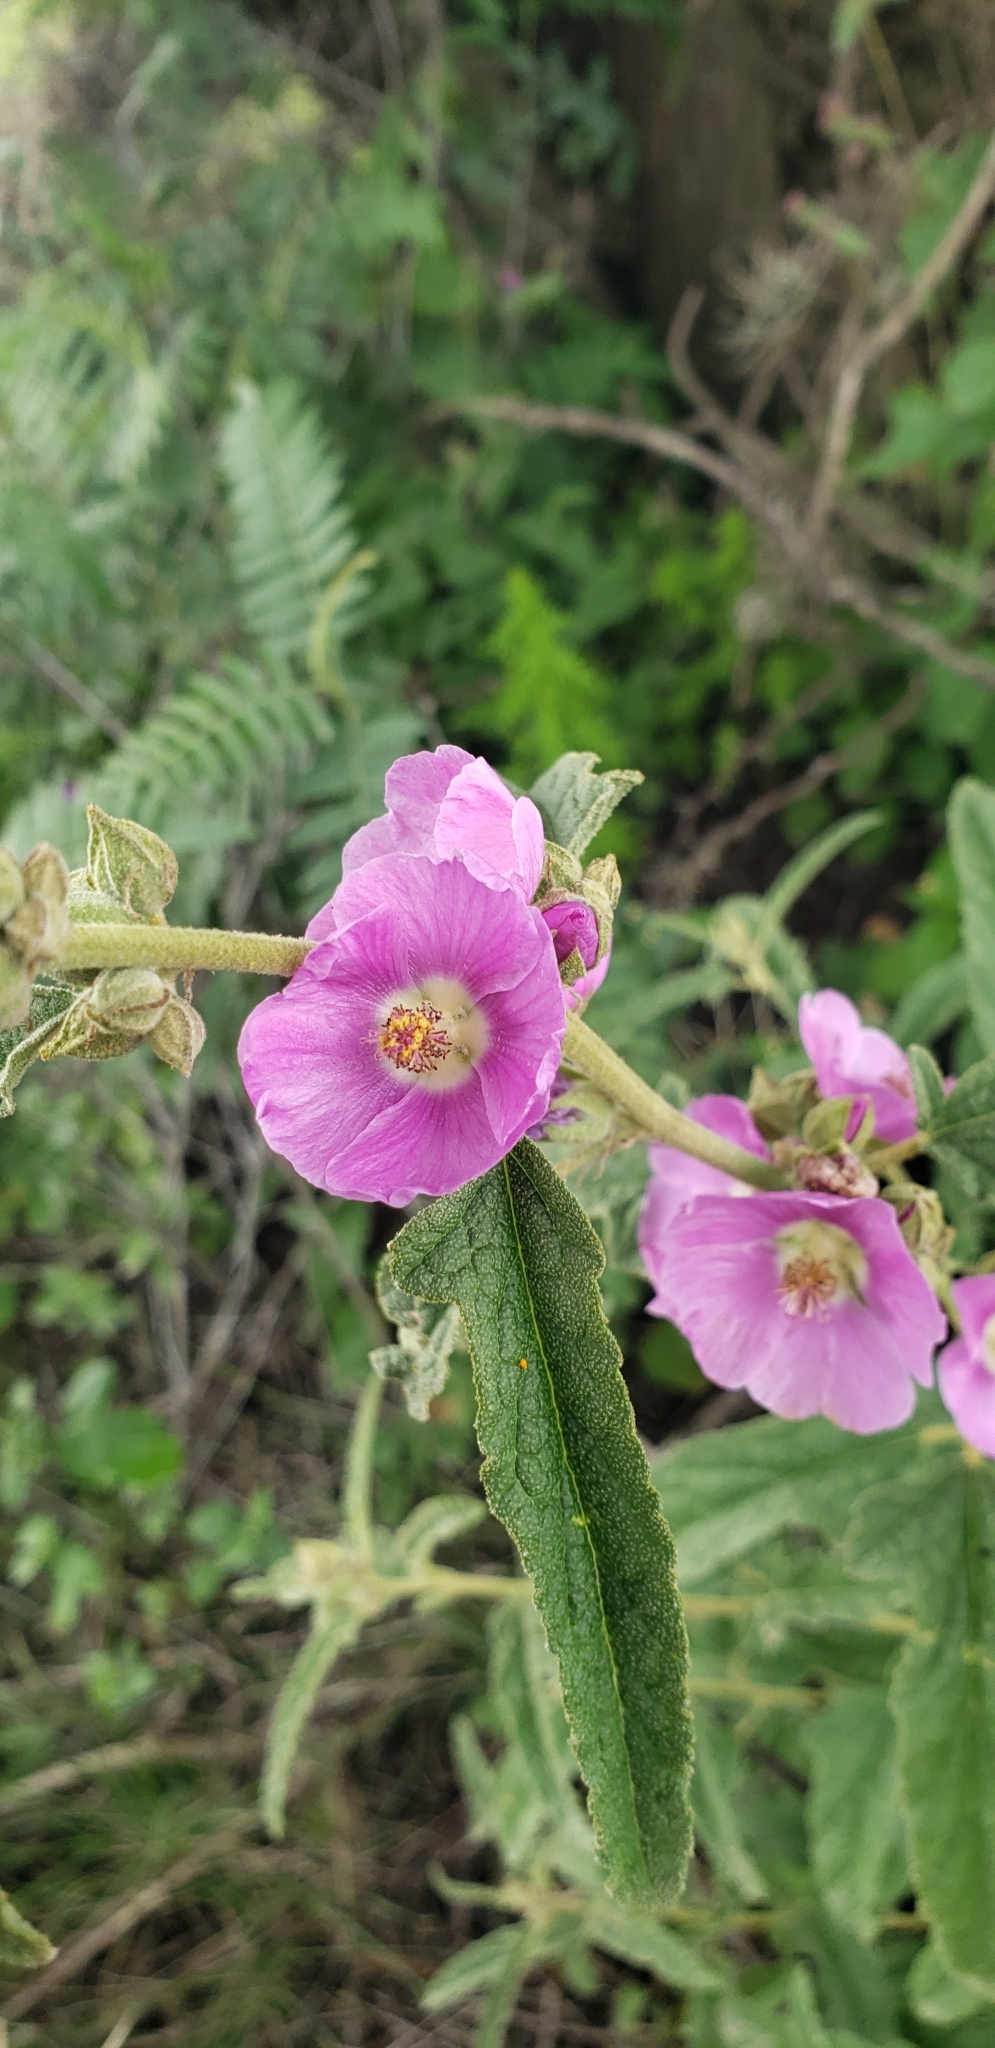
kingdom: Plantae
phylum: Tracheophyta
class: Magnoliopsida
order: Malvales
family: Malvaceae
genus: Sphaeralcea
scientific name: Sphaeralcea angustifolia
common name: Copper globe-mallow
